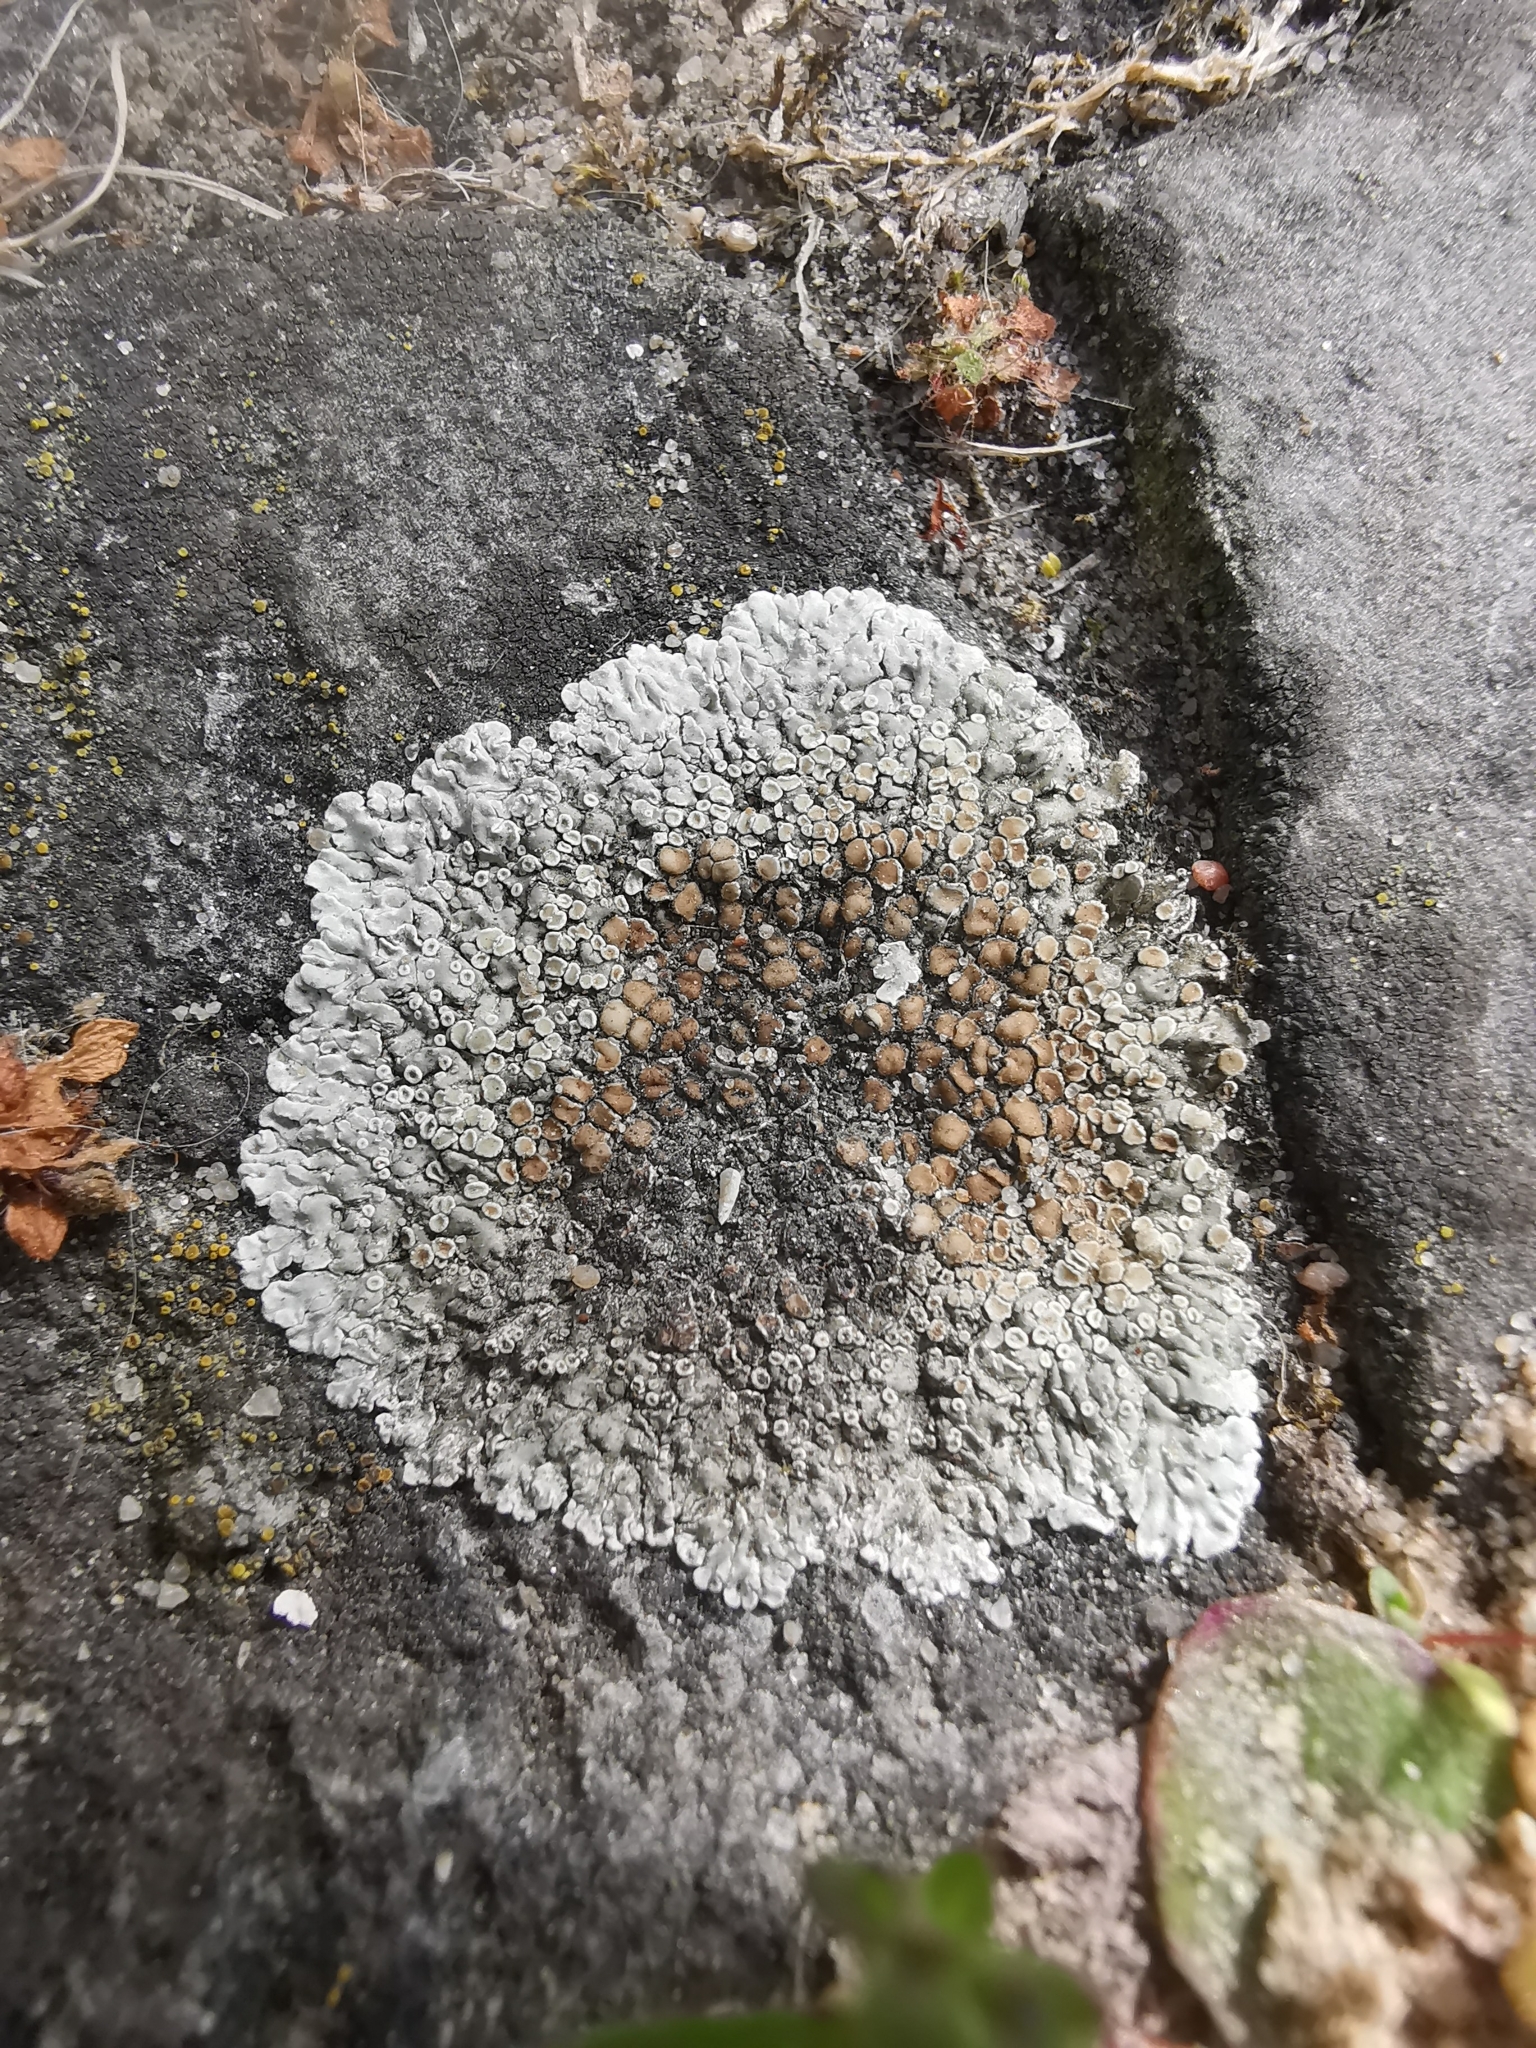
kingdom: Fungi
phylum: Ascomycota
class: Lecanoromycetes
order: Lecanorales
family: Lecanoraceae
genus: Protoparmeliopsis
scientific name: Protoparmeliopsis muralis
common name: Stonewall rim lichen
